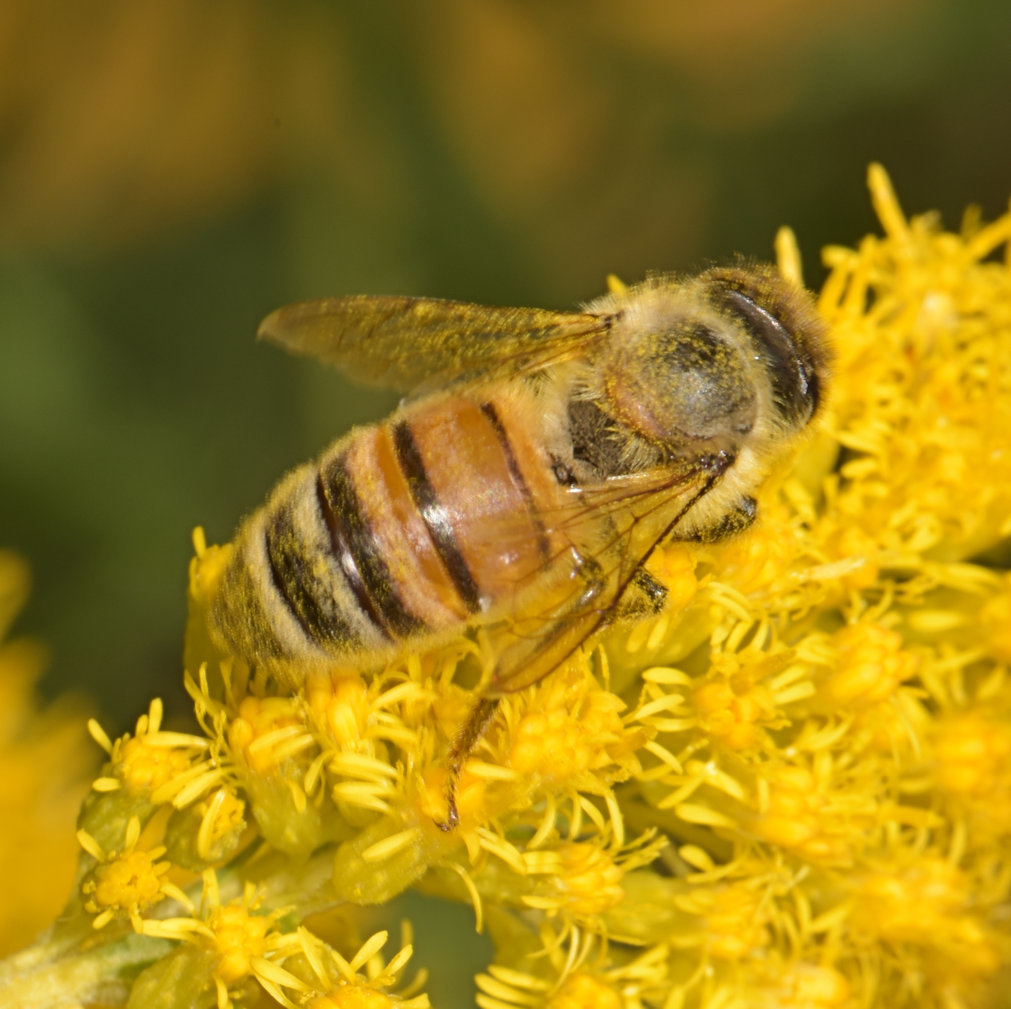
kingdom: Animalia
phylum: Arthropoda
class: Insecta
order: Hymenoptera
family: Apidae
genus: Apis
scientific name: Apis mellifera
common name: Honey bee
